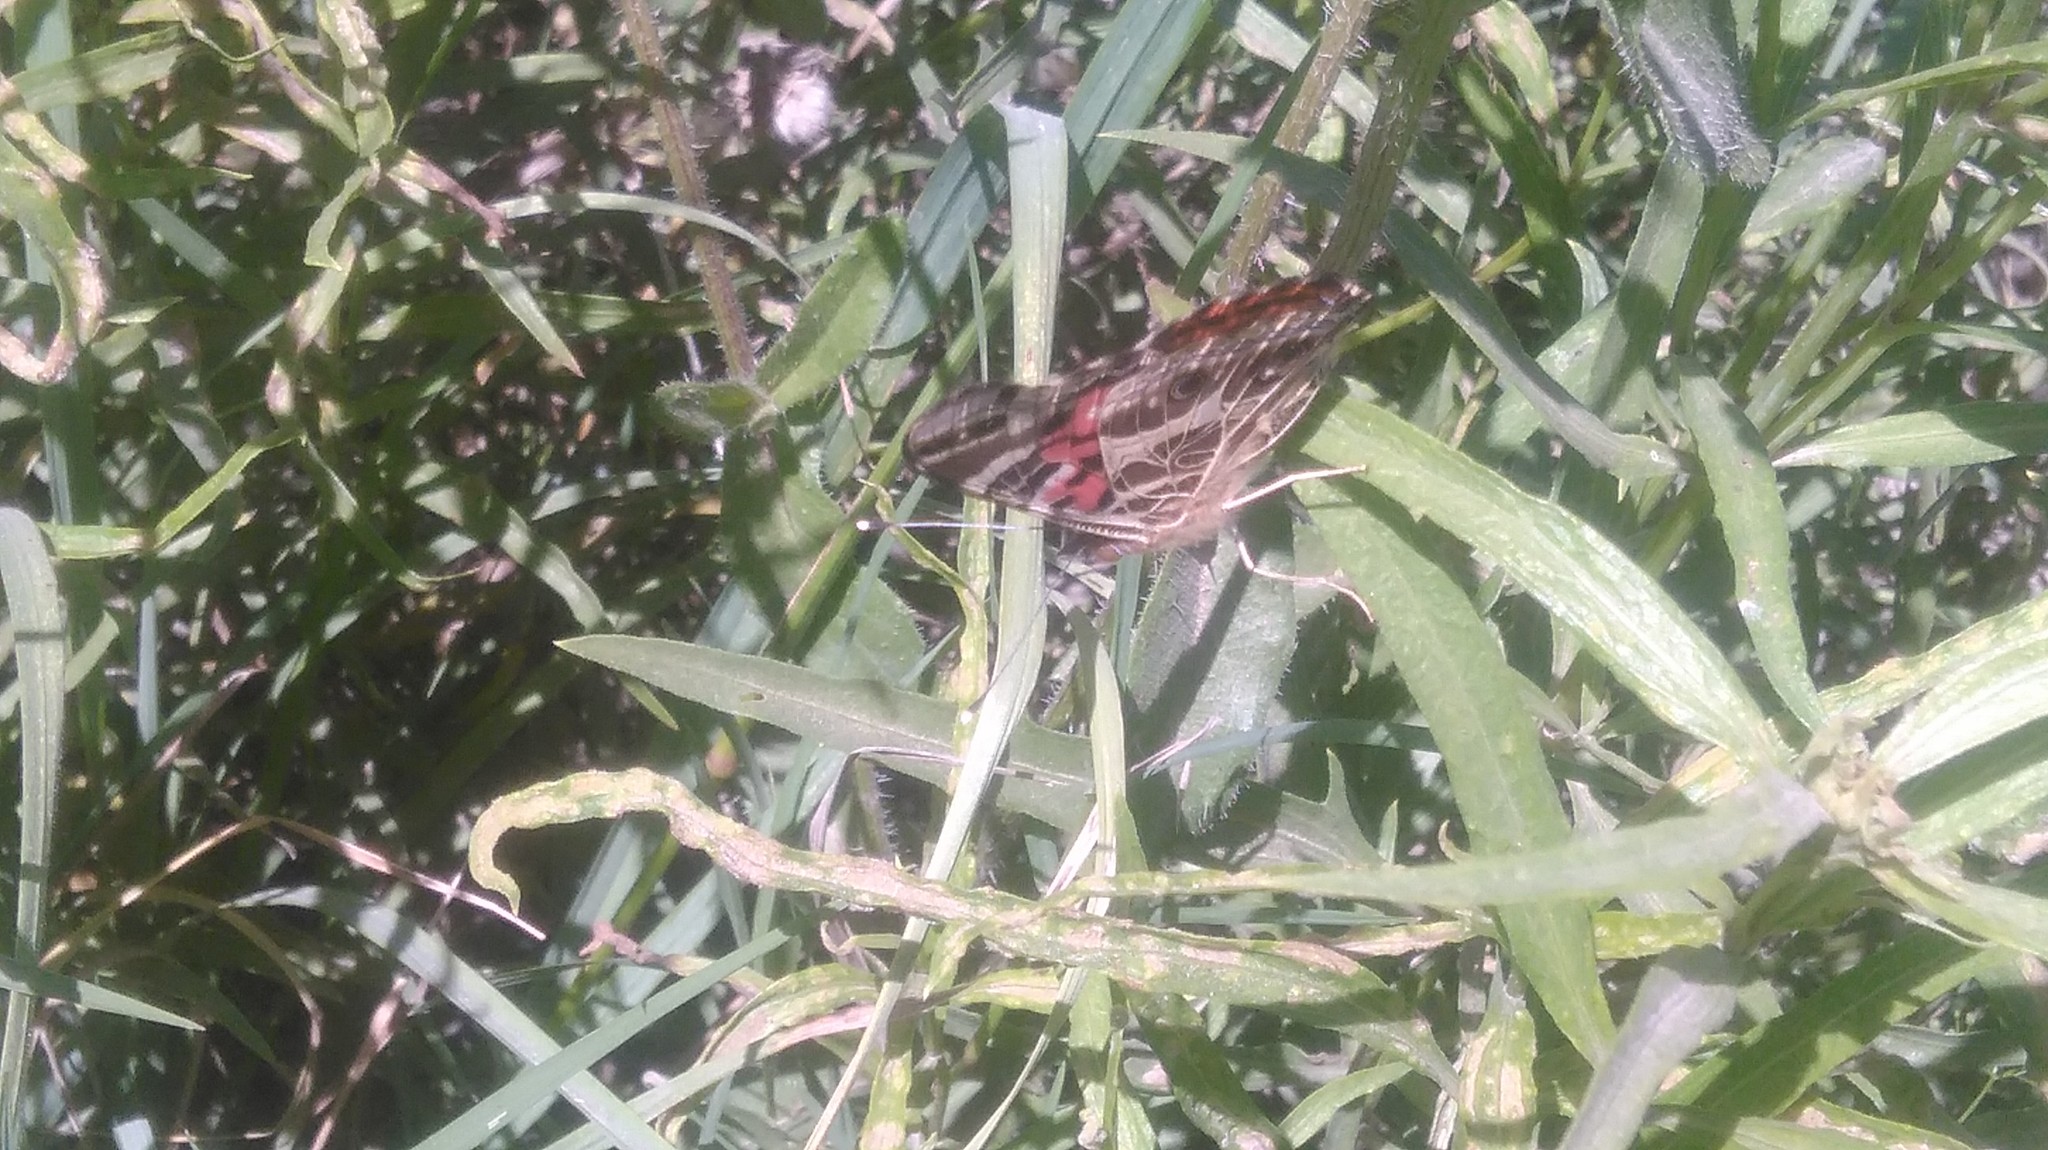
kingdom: Animalia
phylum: Arthropoda
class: Insecta
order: Lepidoptera
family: Nymphalidae
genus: Vanessa
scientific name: Vanessa braziliensis
